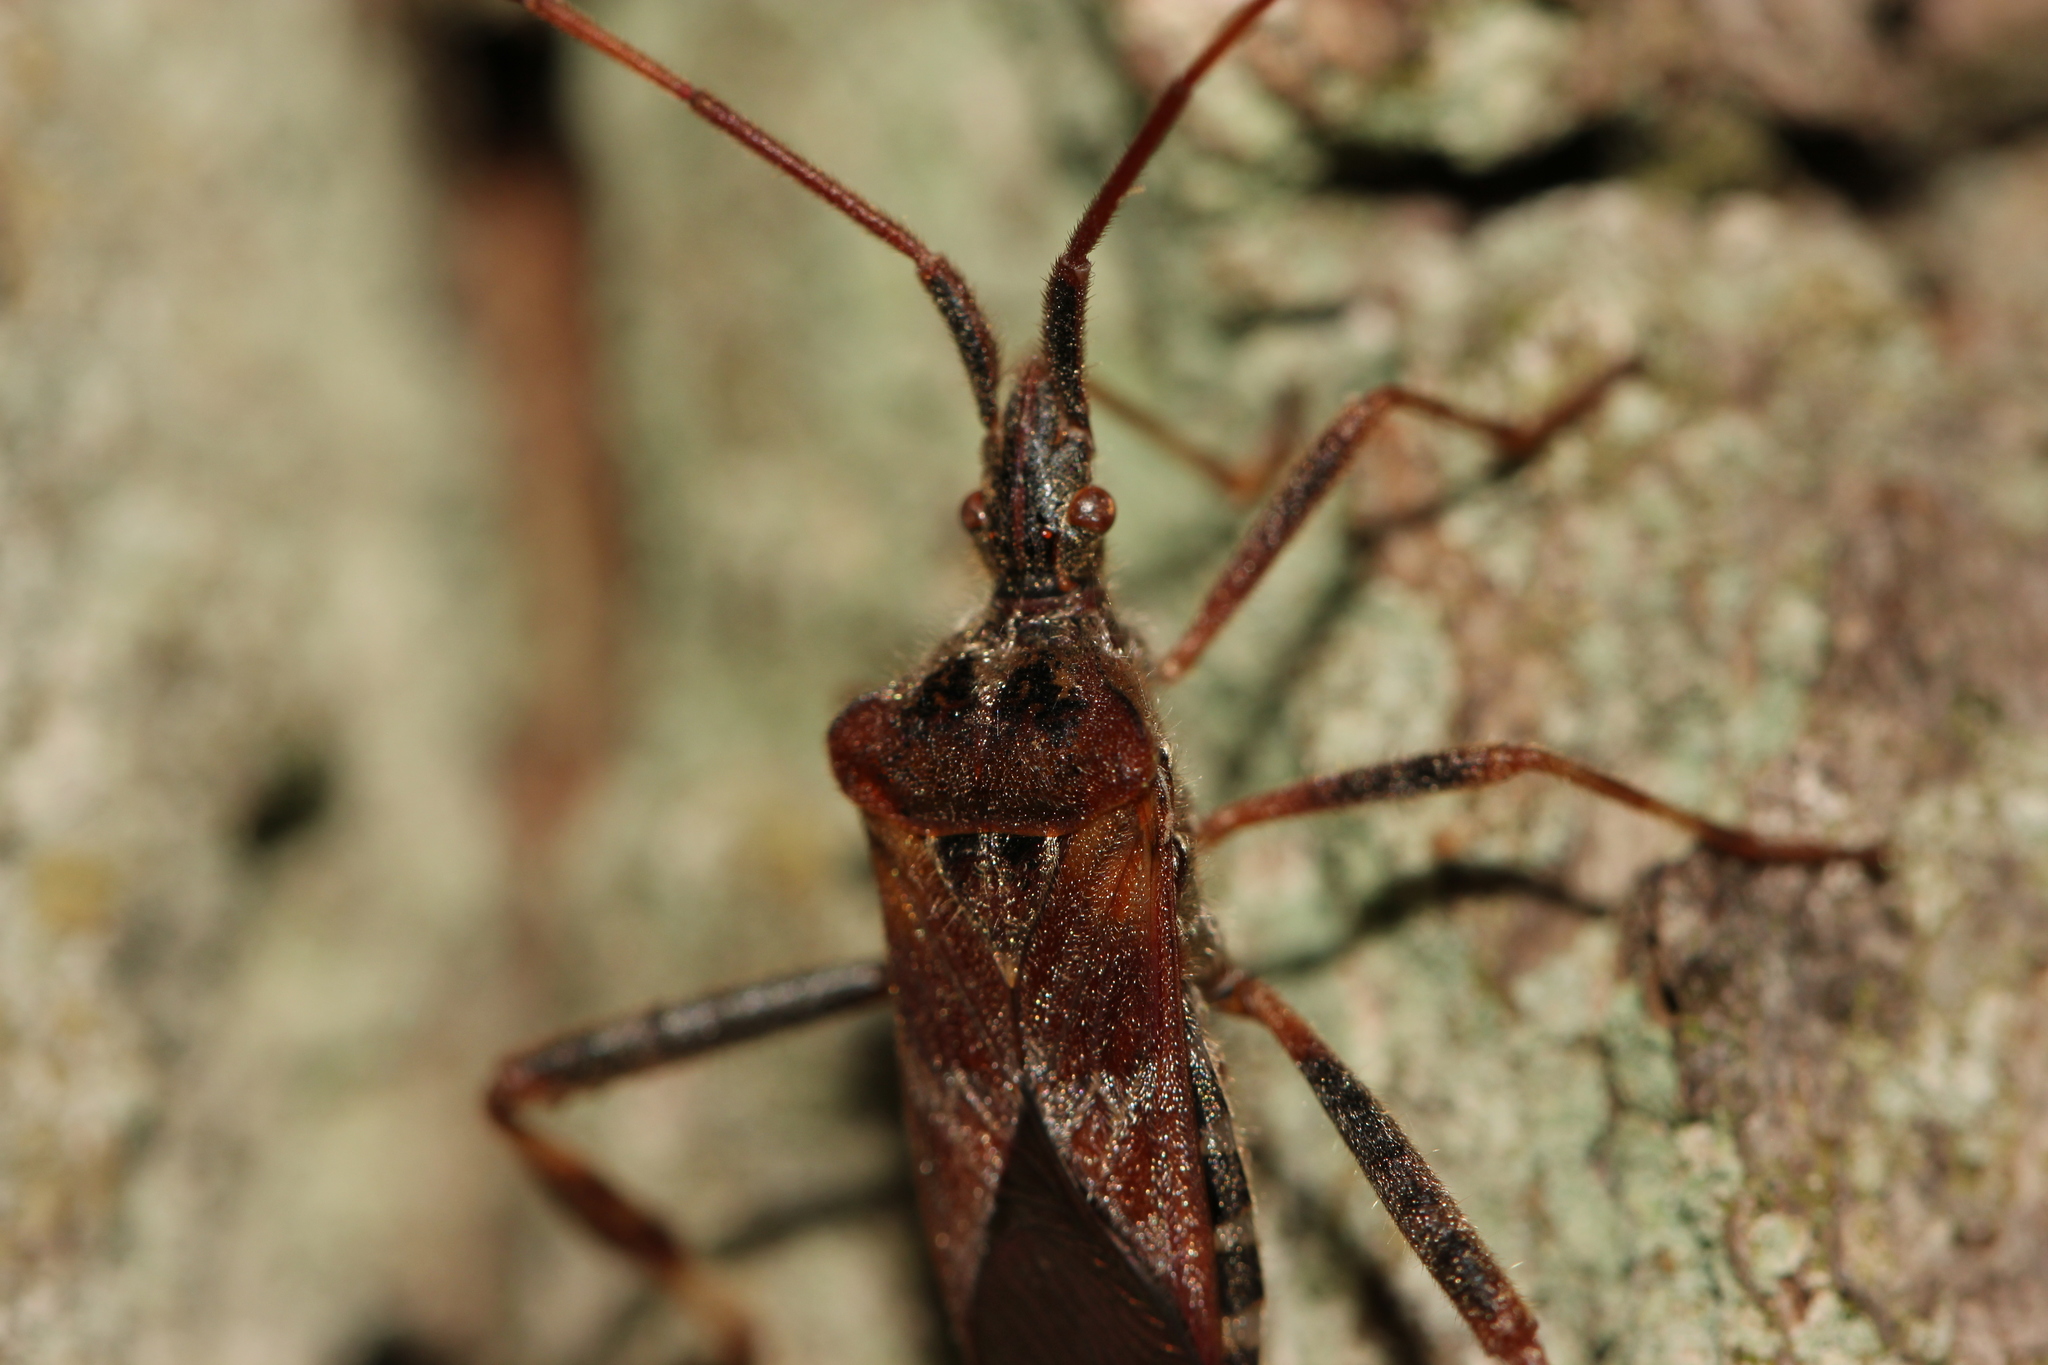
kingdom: Animalia
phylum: Arthropoda
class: Insecta
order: Hemiptera
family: Coreidae
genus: Leptoglossus
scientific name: Leptoglossus occidentalis
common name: Western conifer-seed bug
